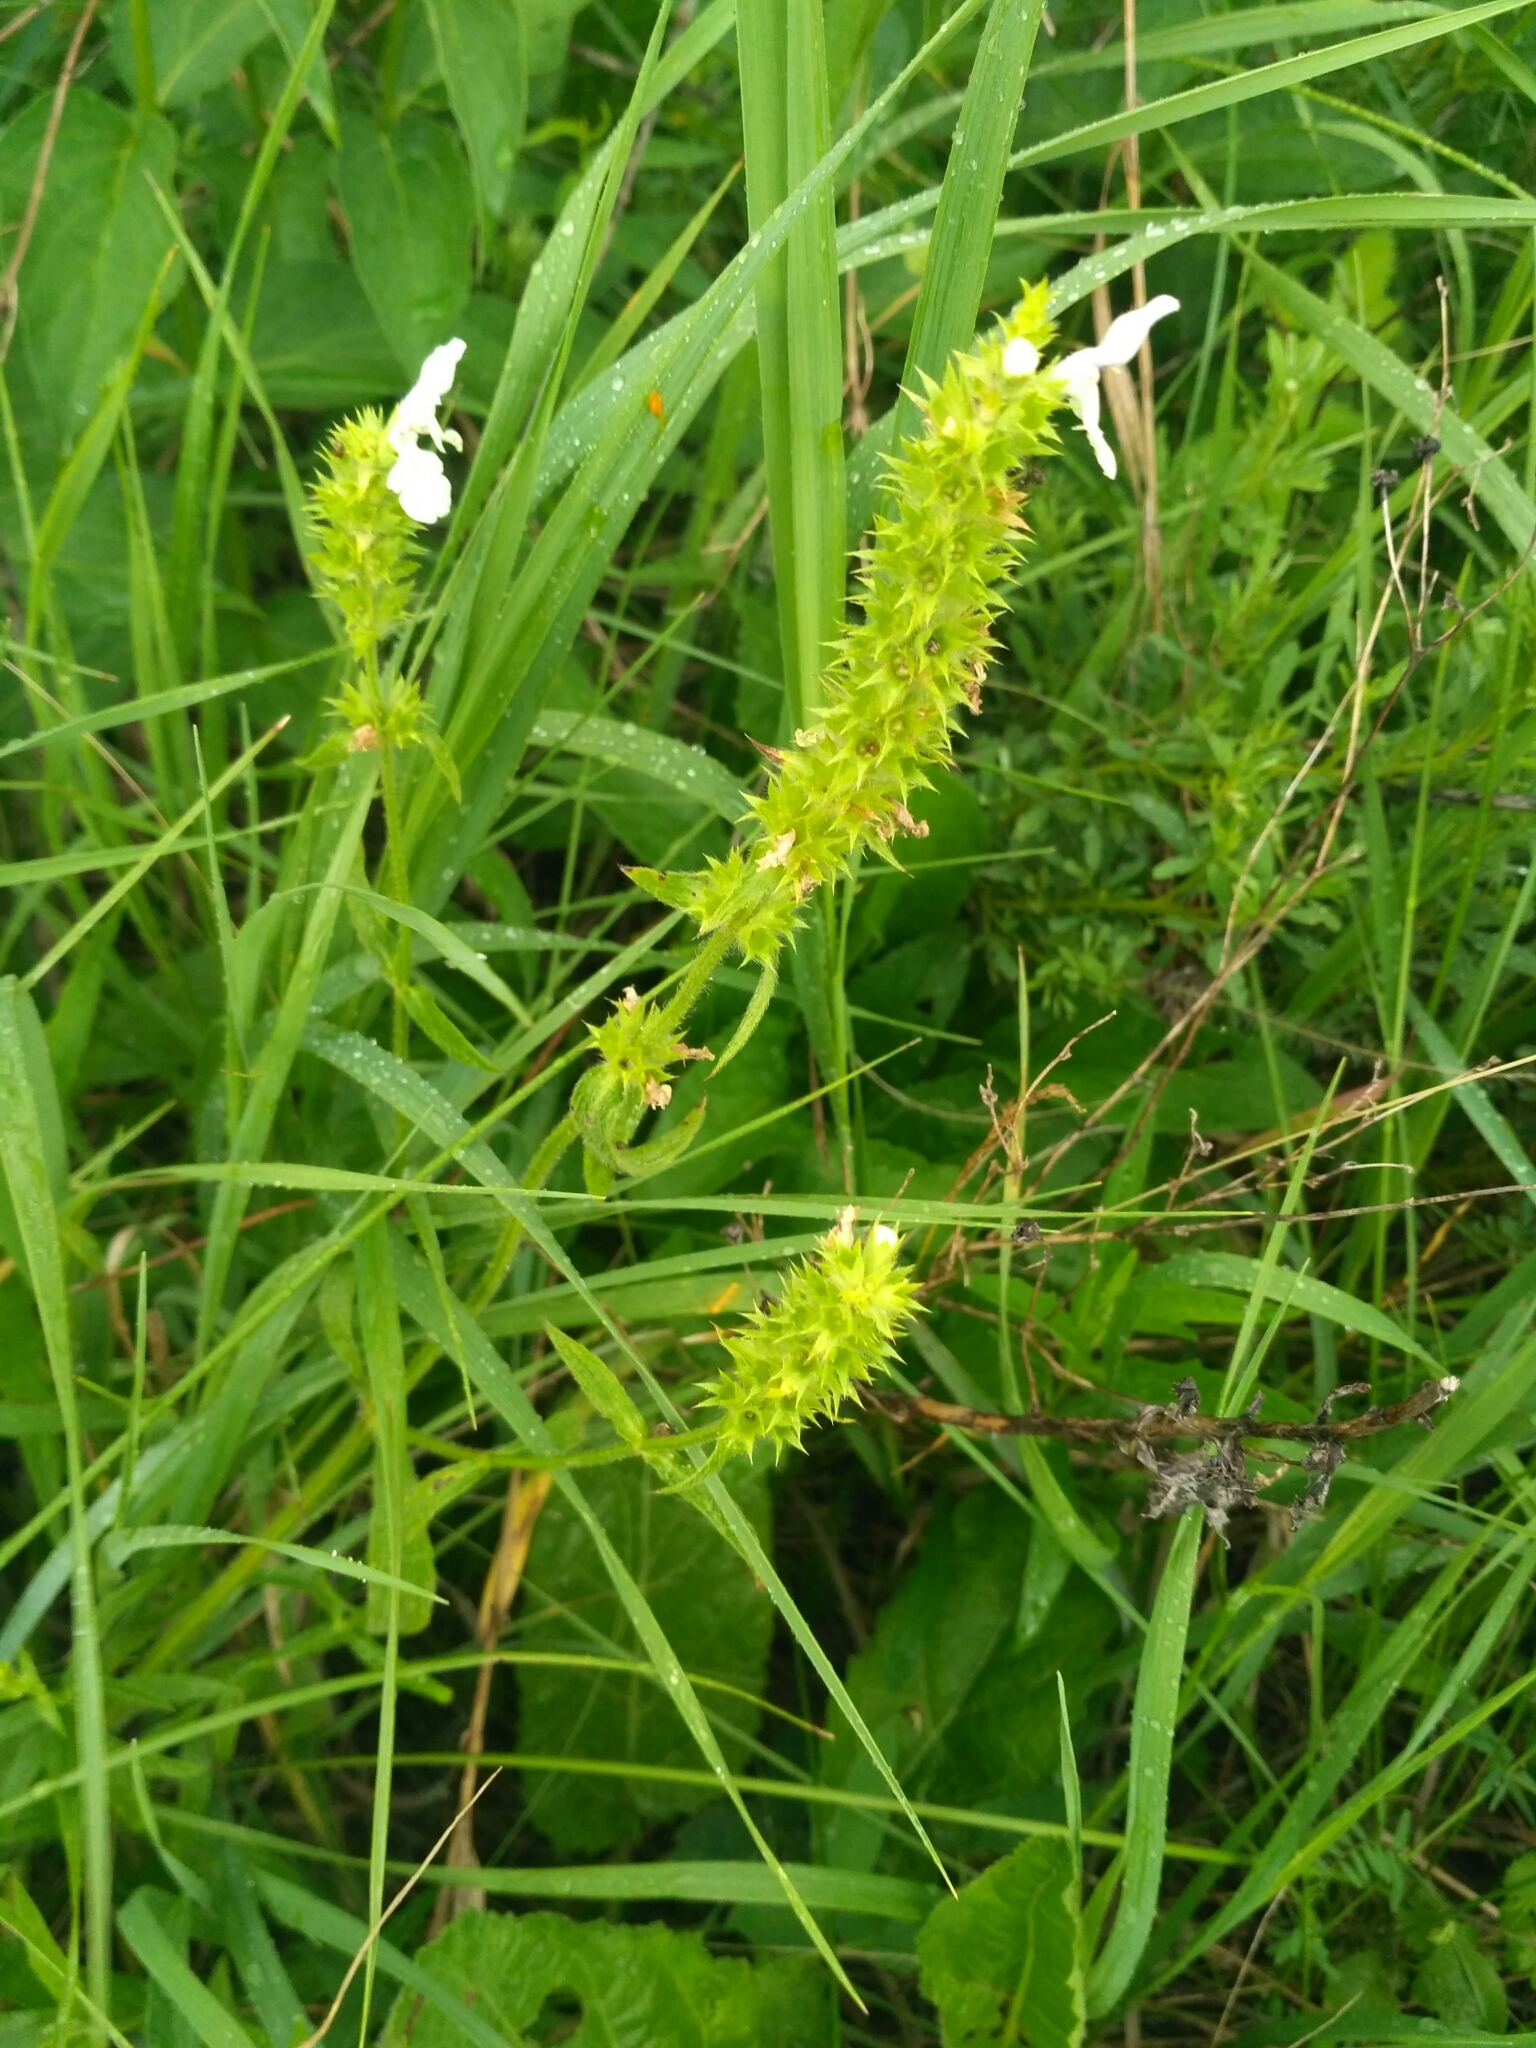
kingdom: Plantae
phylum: Tracheophyta
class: Magnoliopsida
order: Lamiales
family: Lamiaceae
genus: Stachys
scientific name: Stachys recta
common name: Perennial yellow-woundwort
